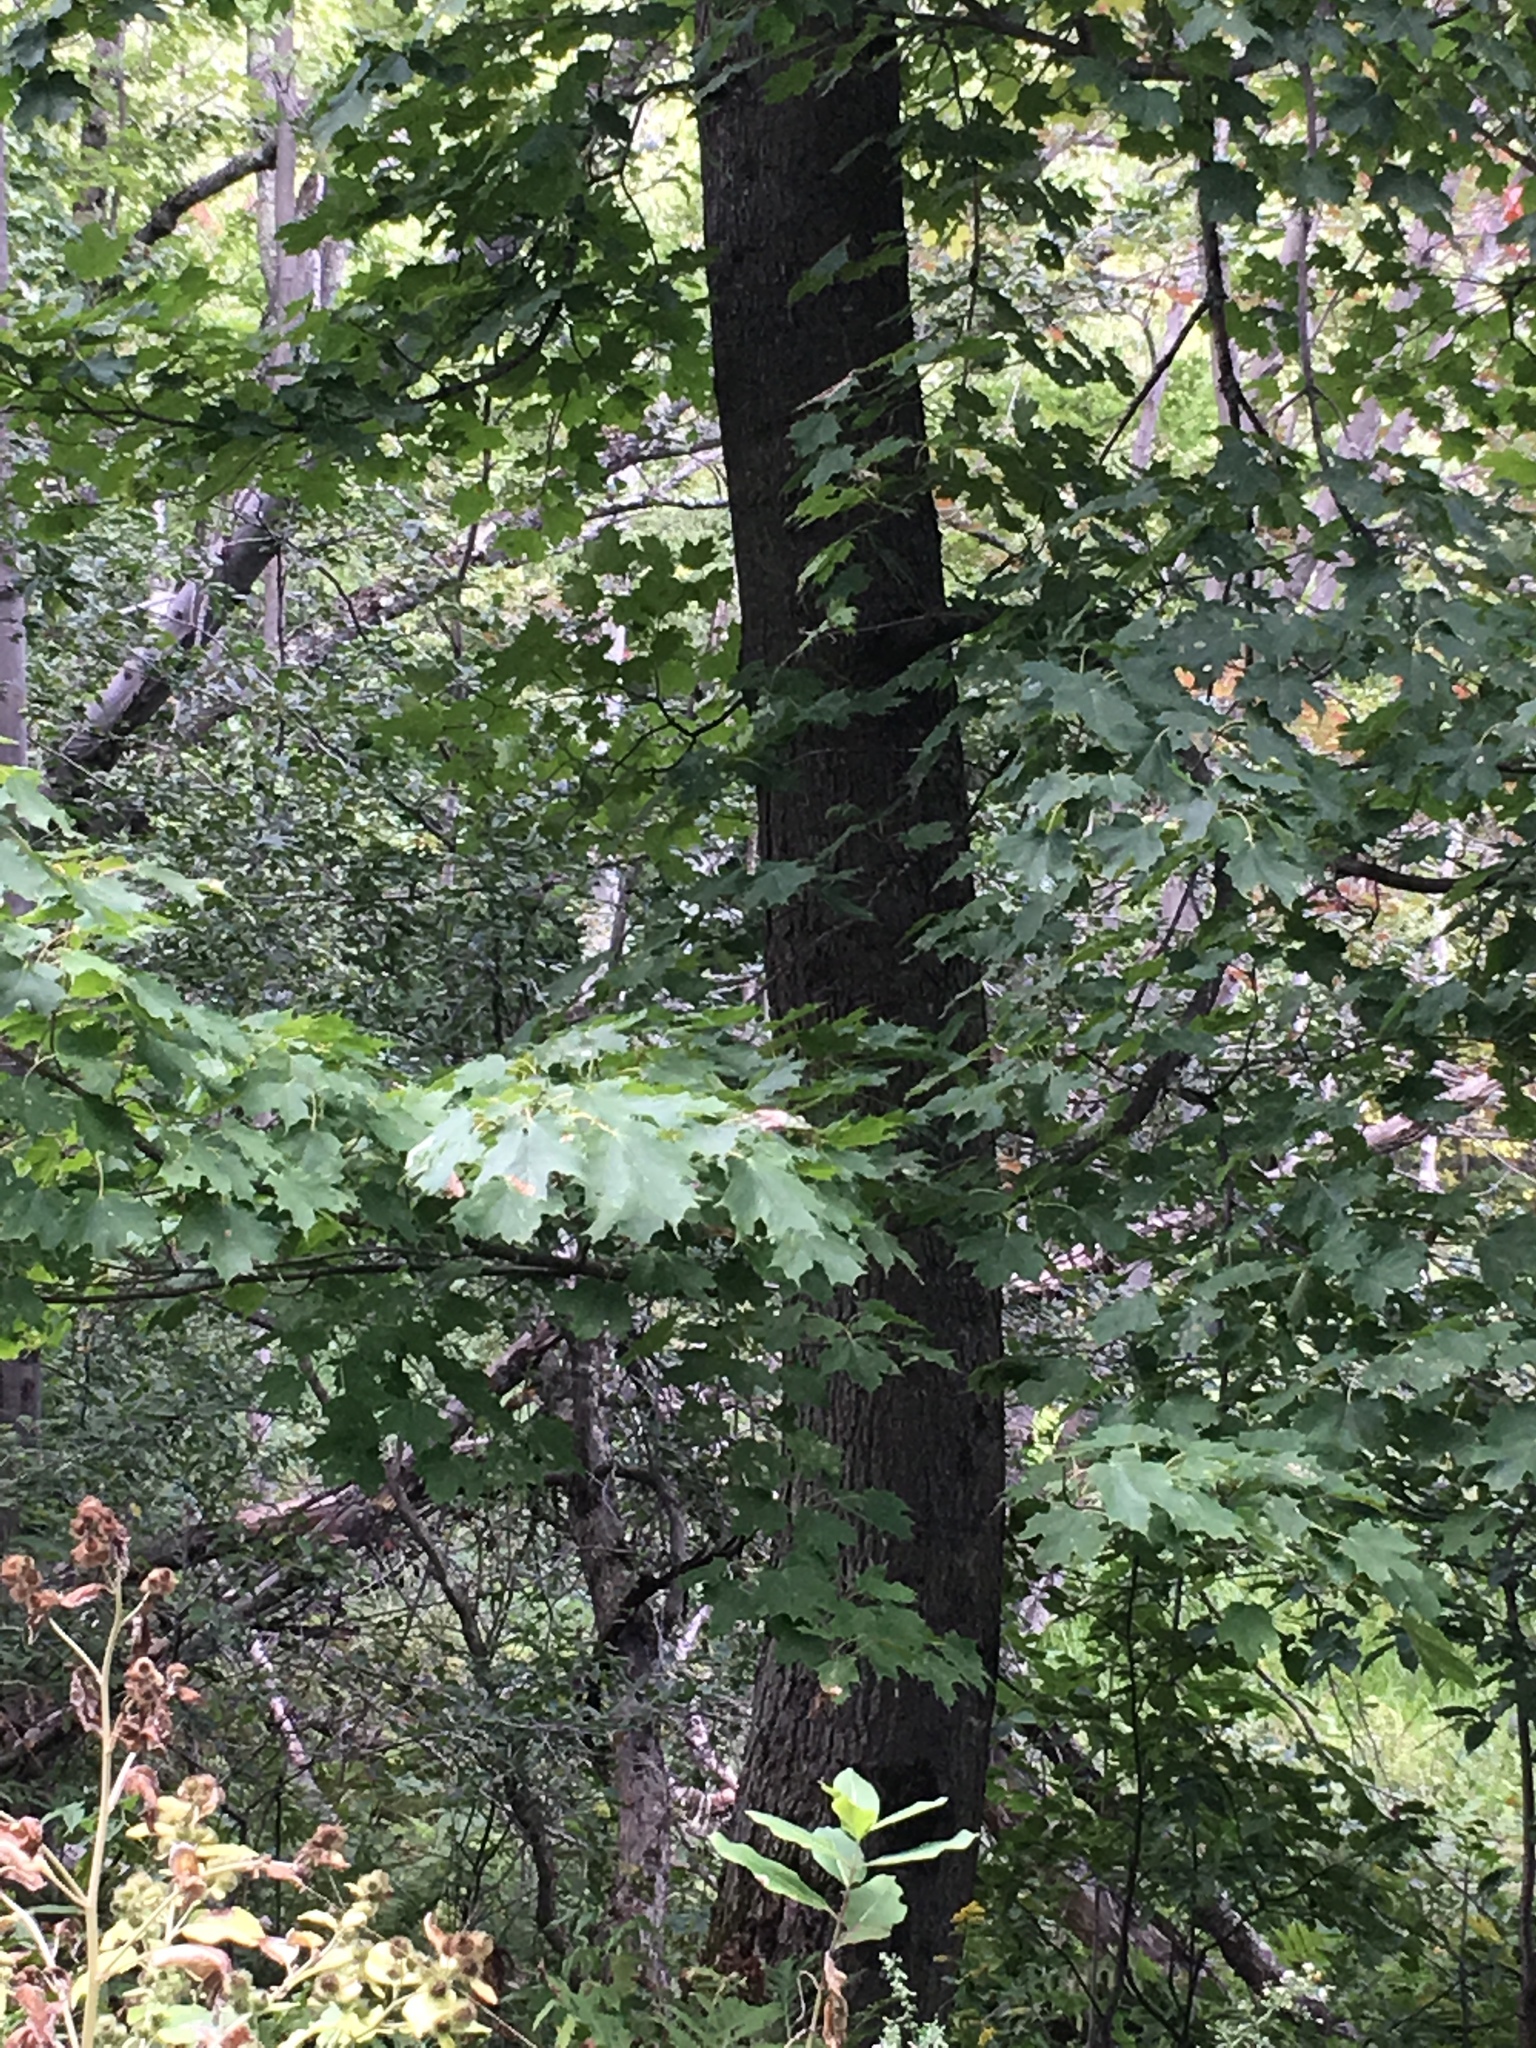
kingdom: Plantae
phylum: Tracheophyta
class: Magnoliopsida
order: Sapindales
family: Sapindaceae
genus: Acer
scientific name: Acer saccharum
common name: Sugar maple
